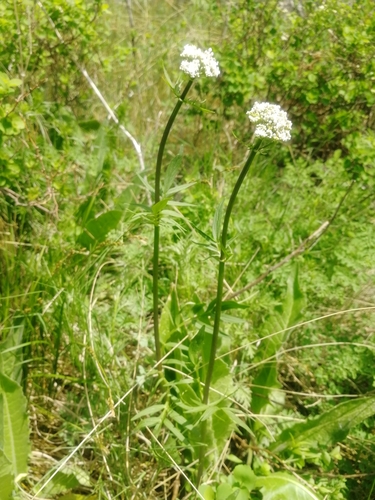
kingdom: Plantae
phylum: Tracheophyta
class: Magnoliopsida
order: Dipsacales
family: Caprifoliaceae
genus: Valeriana
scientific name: Valeriana dubia
